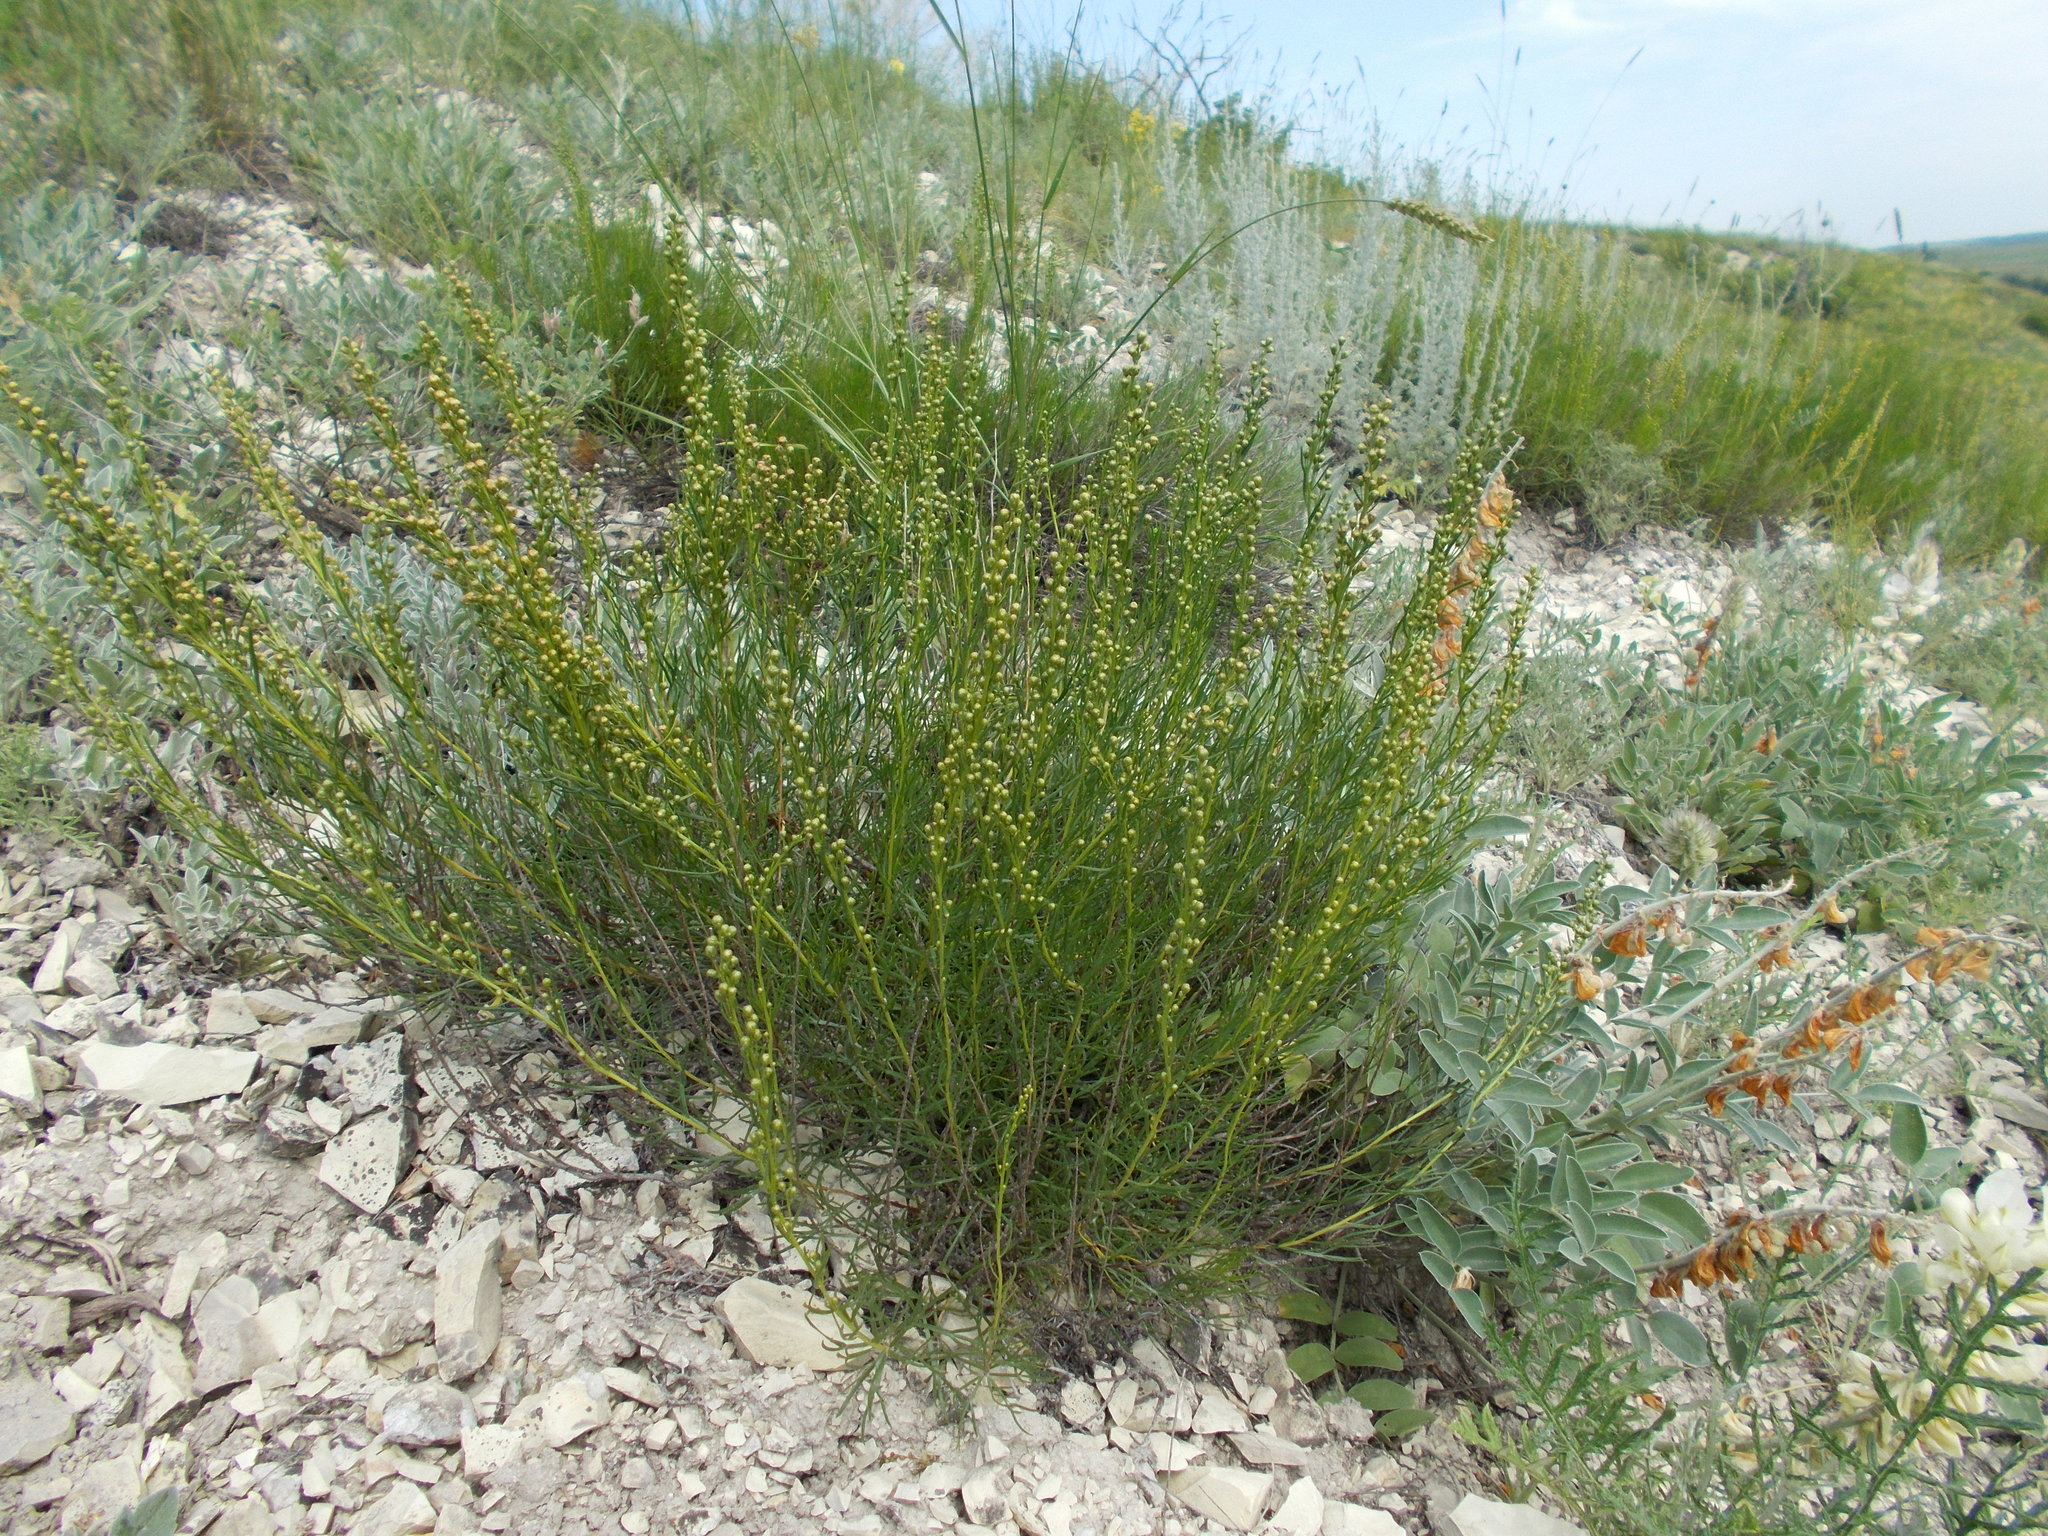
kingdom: Plantae
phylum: Tracheophyta
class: Magnoliopsida
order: Asterales
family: Asteraceae
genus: Artemisia
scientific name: Artemisia salsoloides
